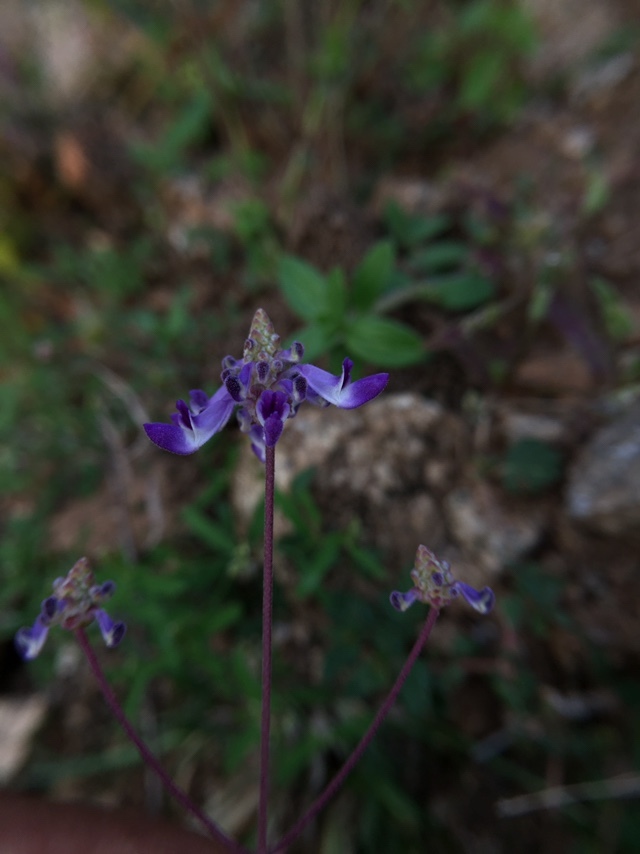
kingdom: Plantae
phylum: Tracheophyta
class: Magnoliopsida
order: Lamiales
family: Lamiaceae
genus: Coleus
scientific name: Coleus strobilifer
